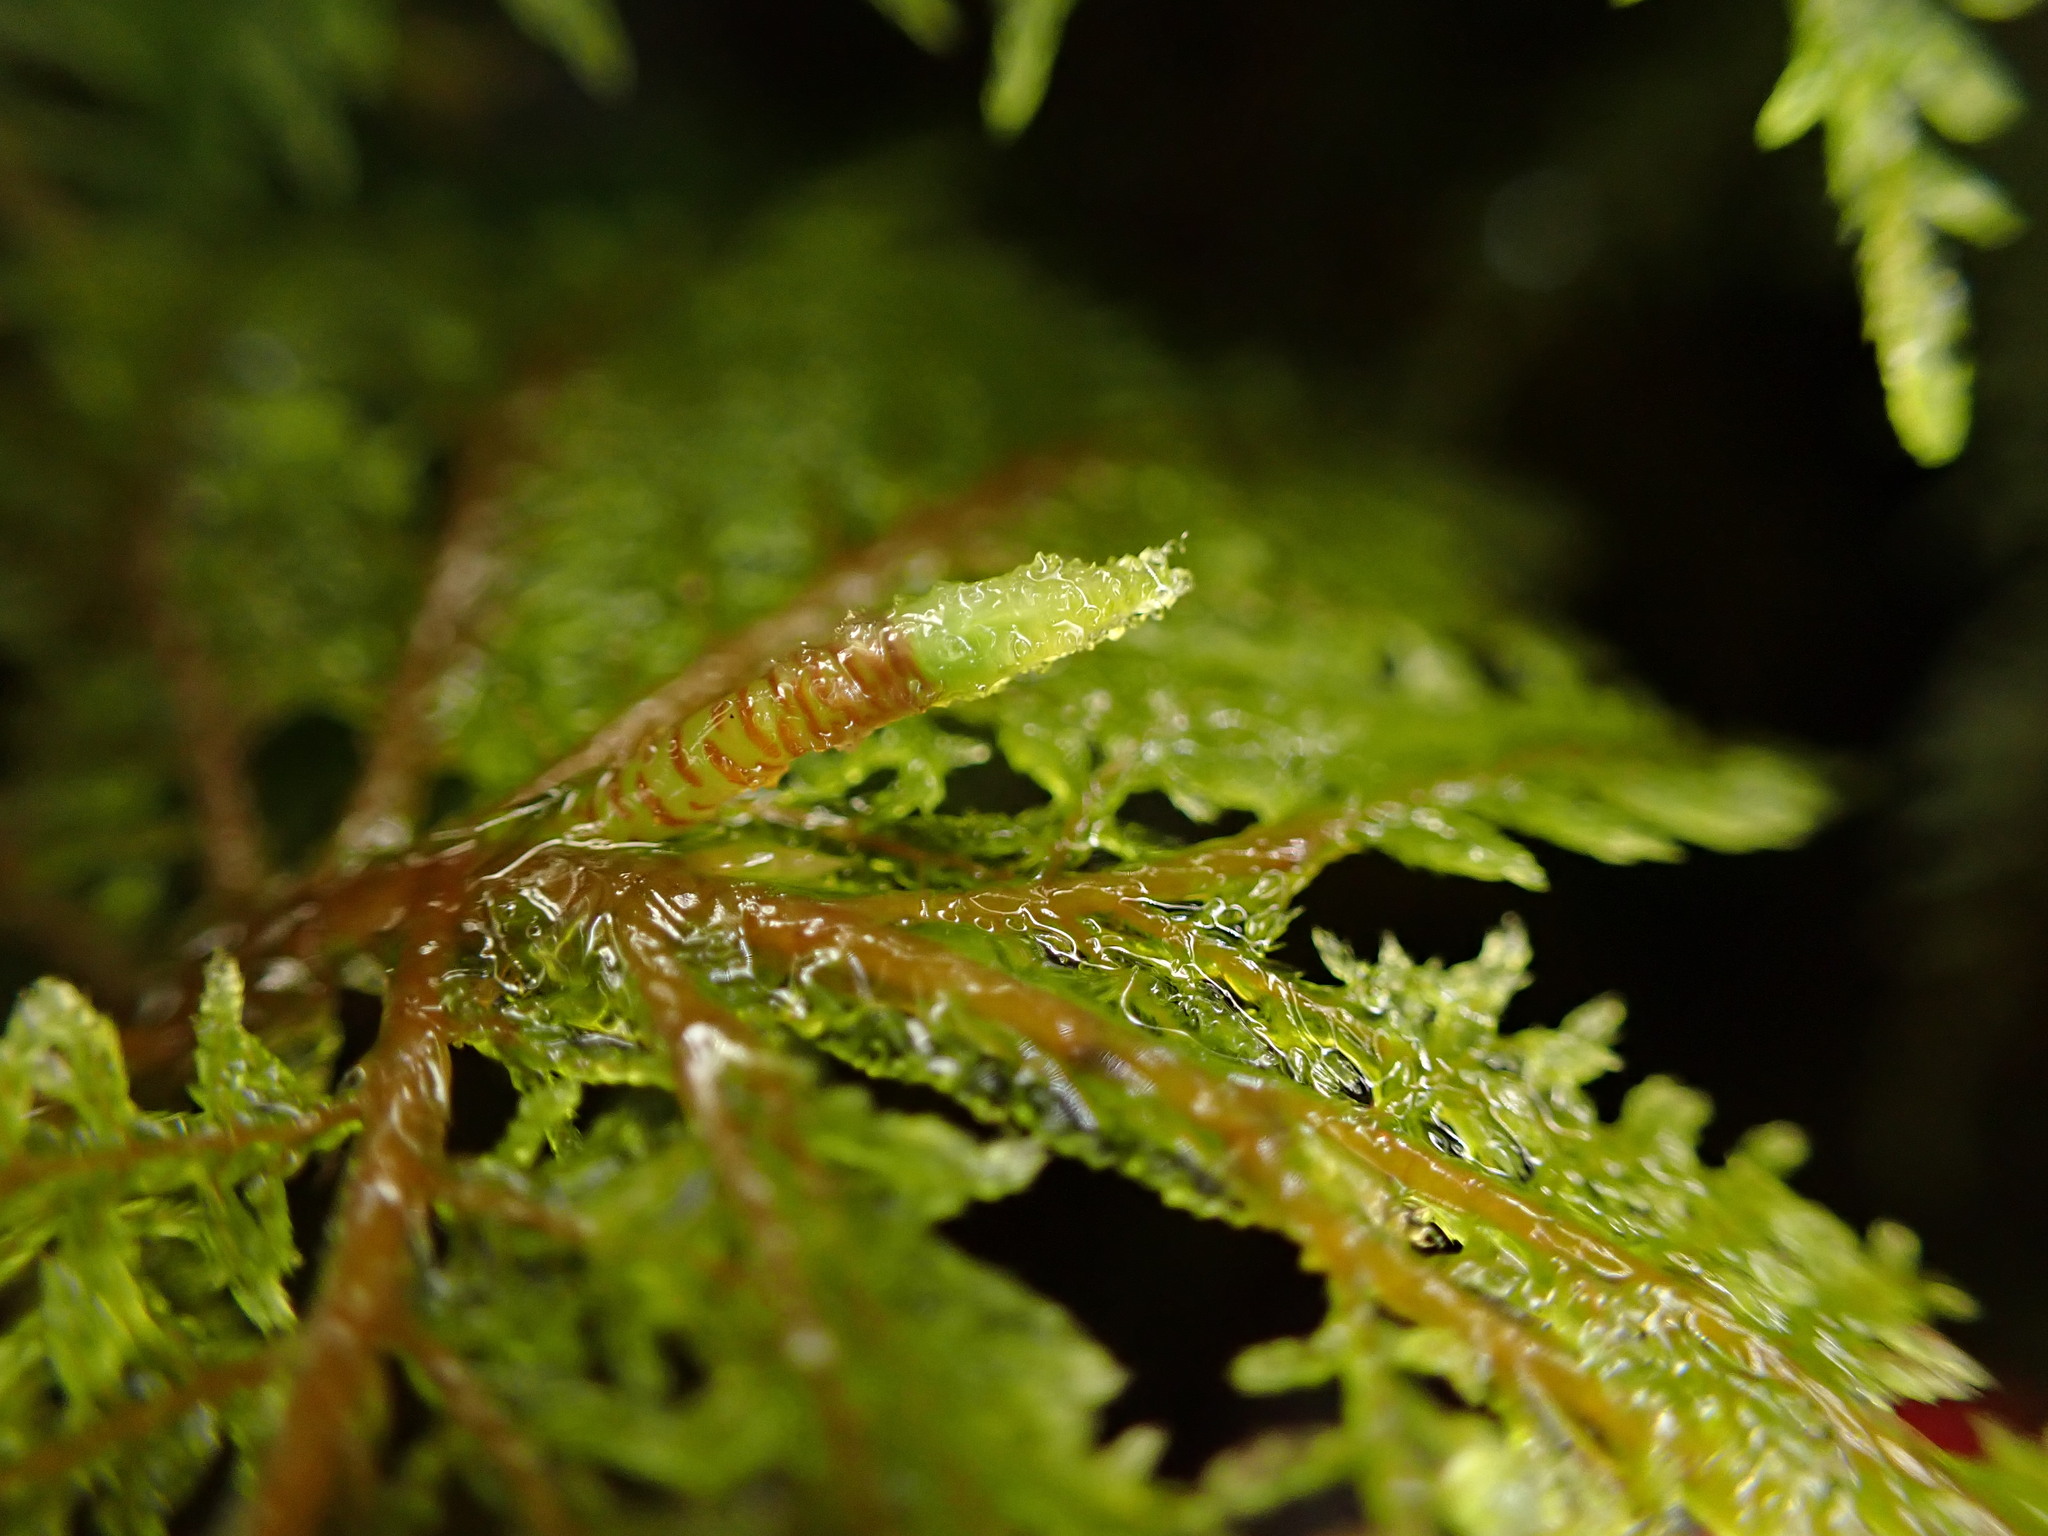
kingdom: Plantae
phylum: Bryophyta
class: Bryopsida
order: Hypnales
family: Hylocomiaceae
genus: Hylocomium
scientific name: Hylocomium splendens
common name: Stairstep moss
